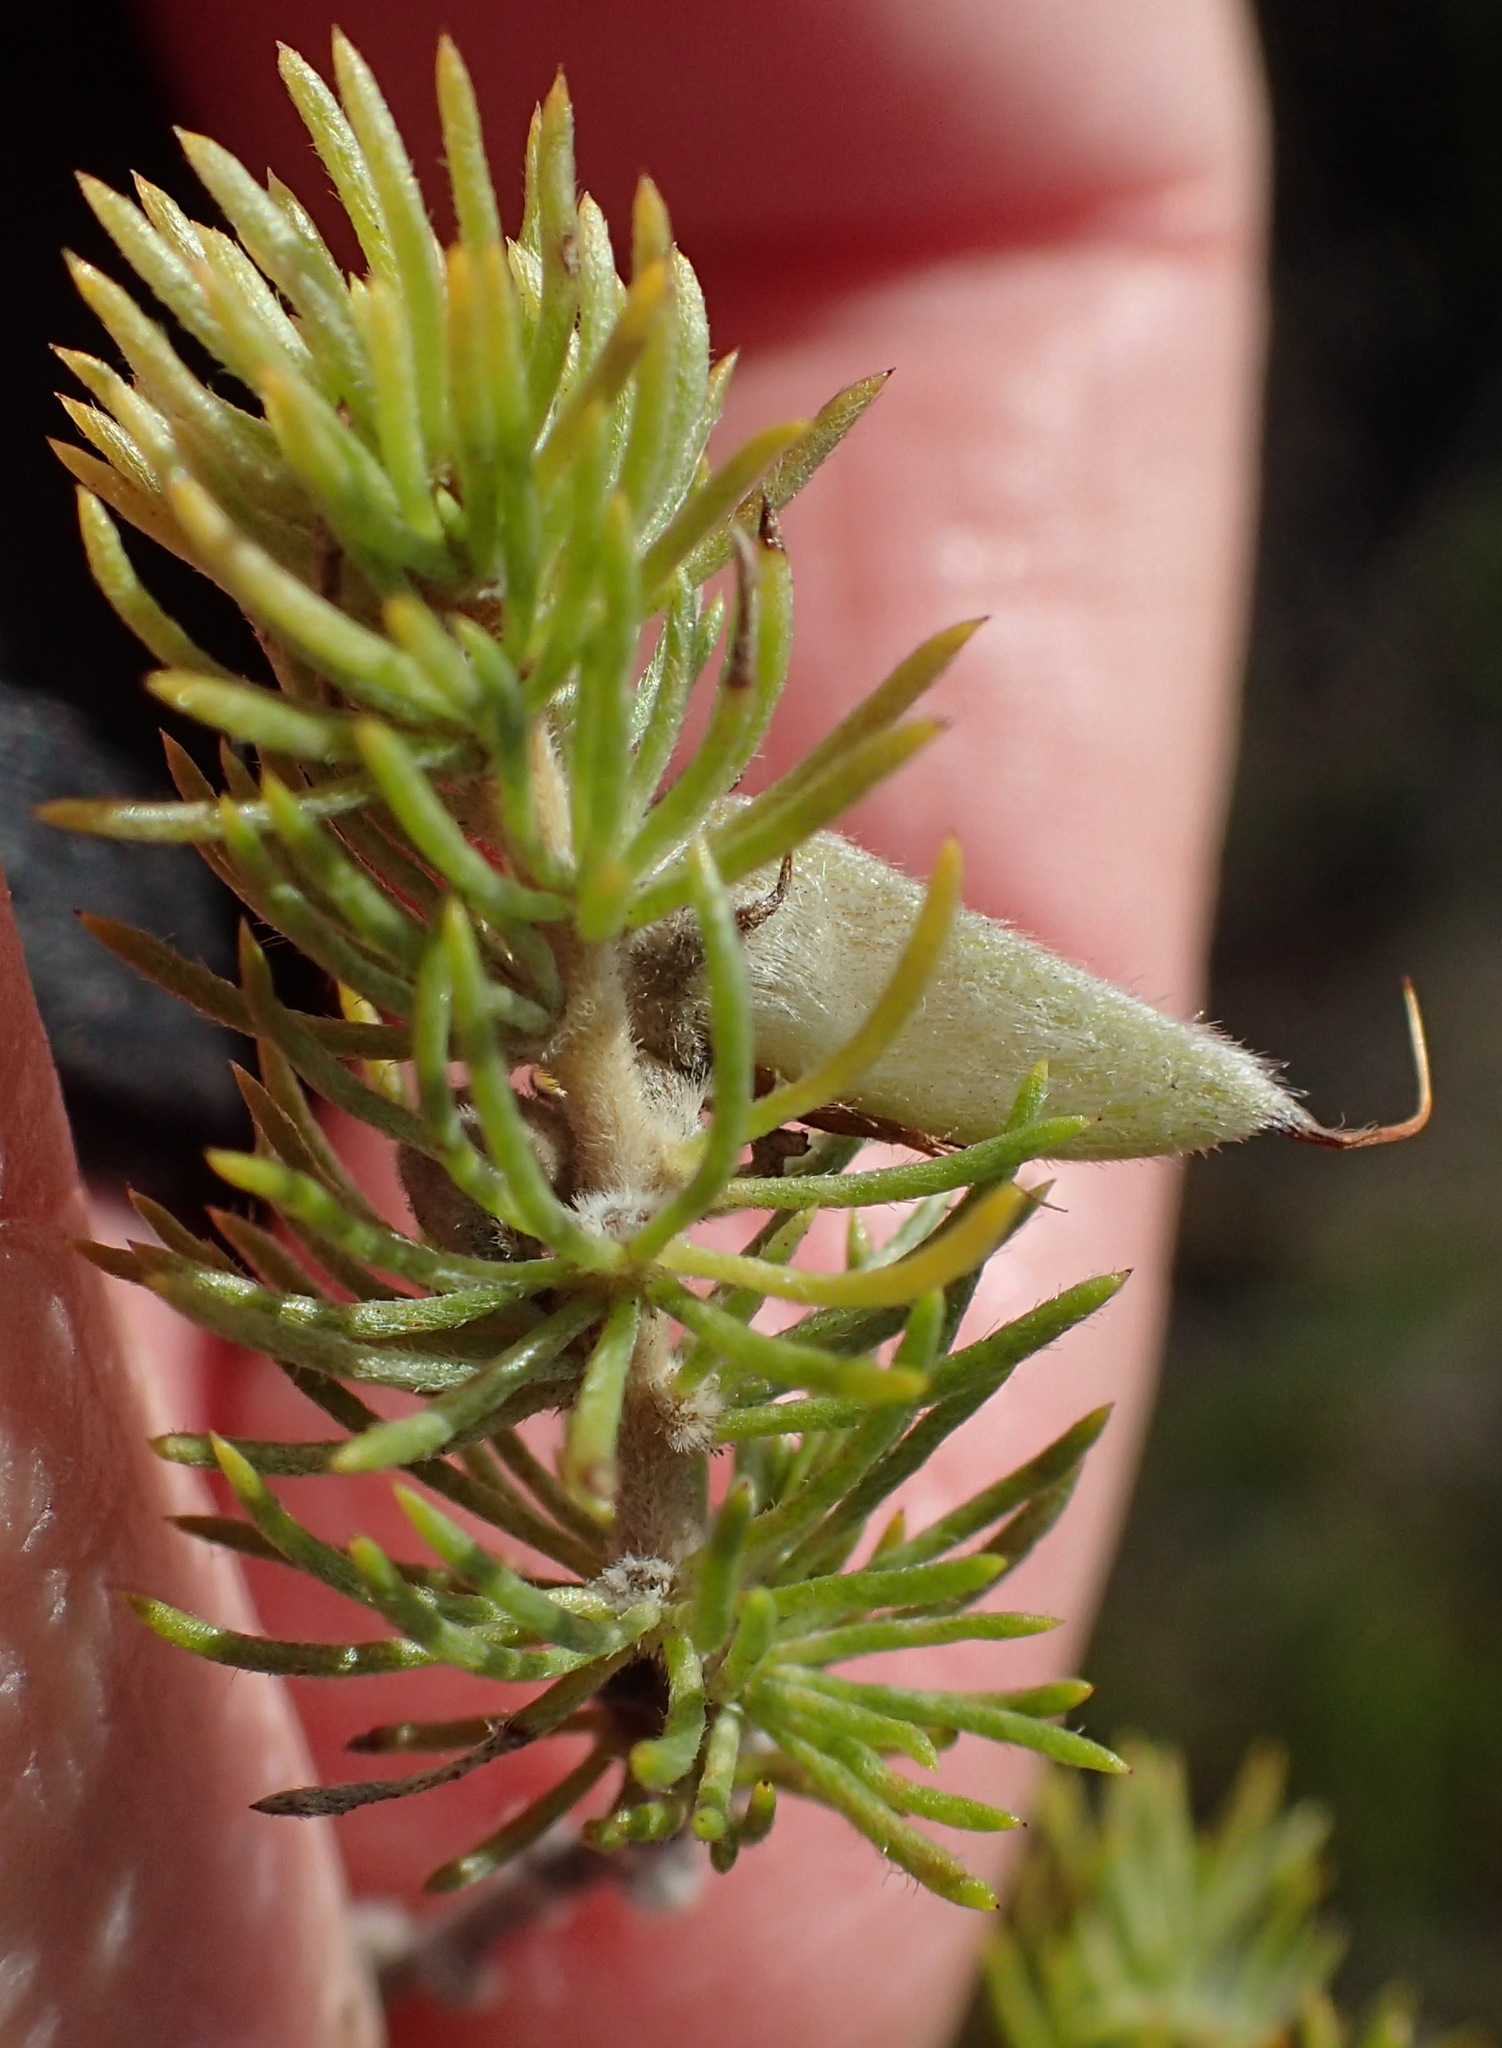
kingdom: Plantae
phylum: Tracheophyta
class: Magnoliopsida
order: Fabales
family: Fabaceae
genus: Aspalathus
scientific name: Aspalathus alopecurus
